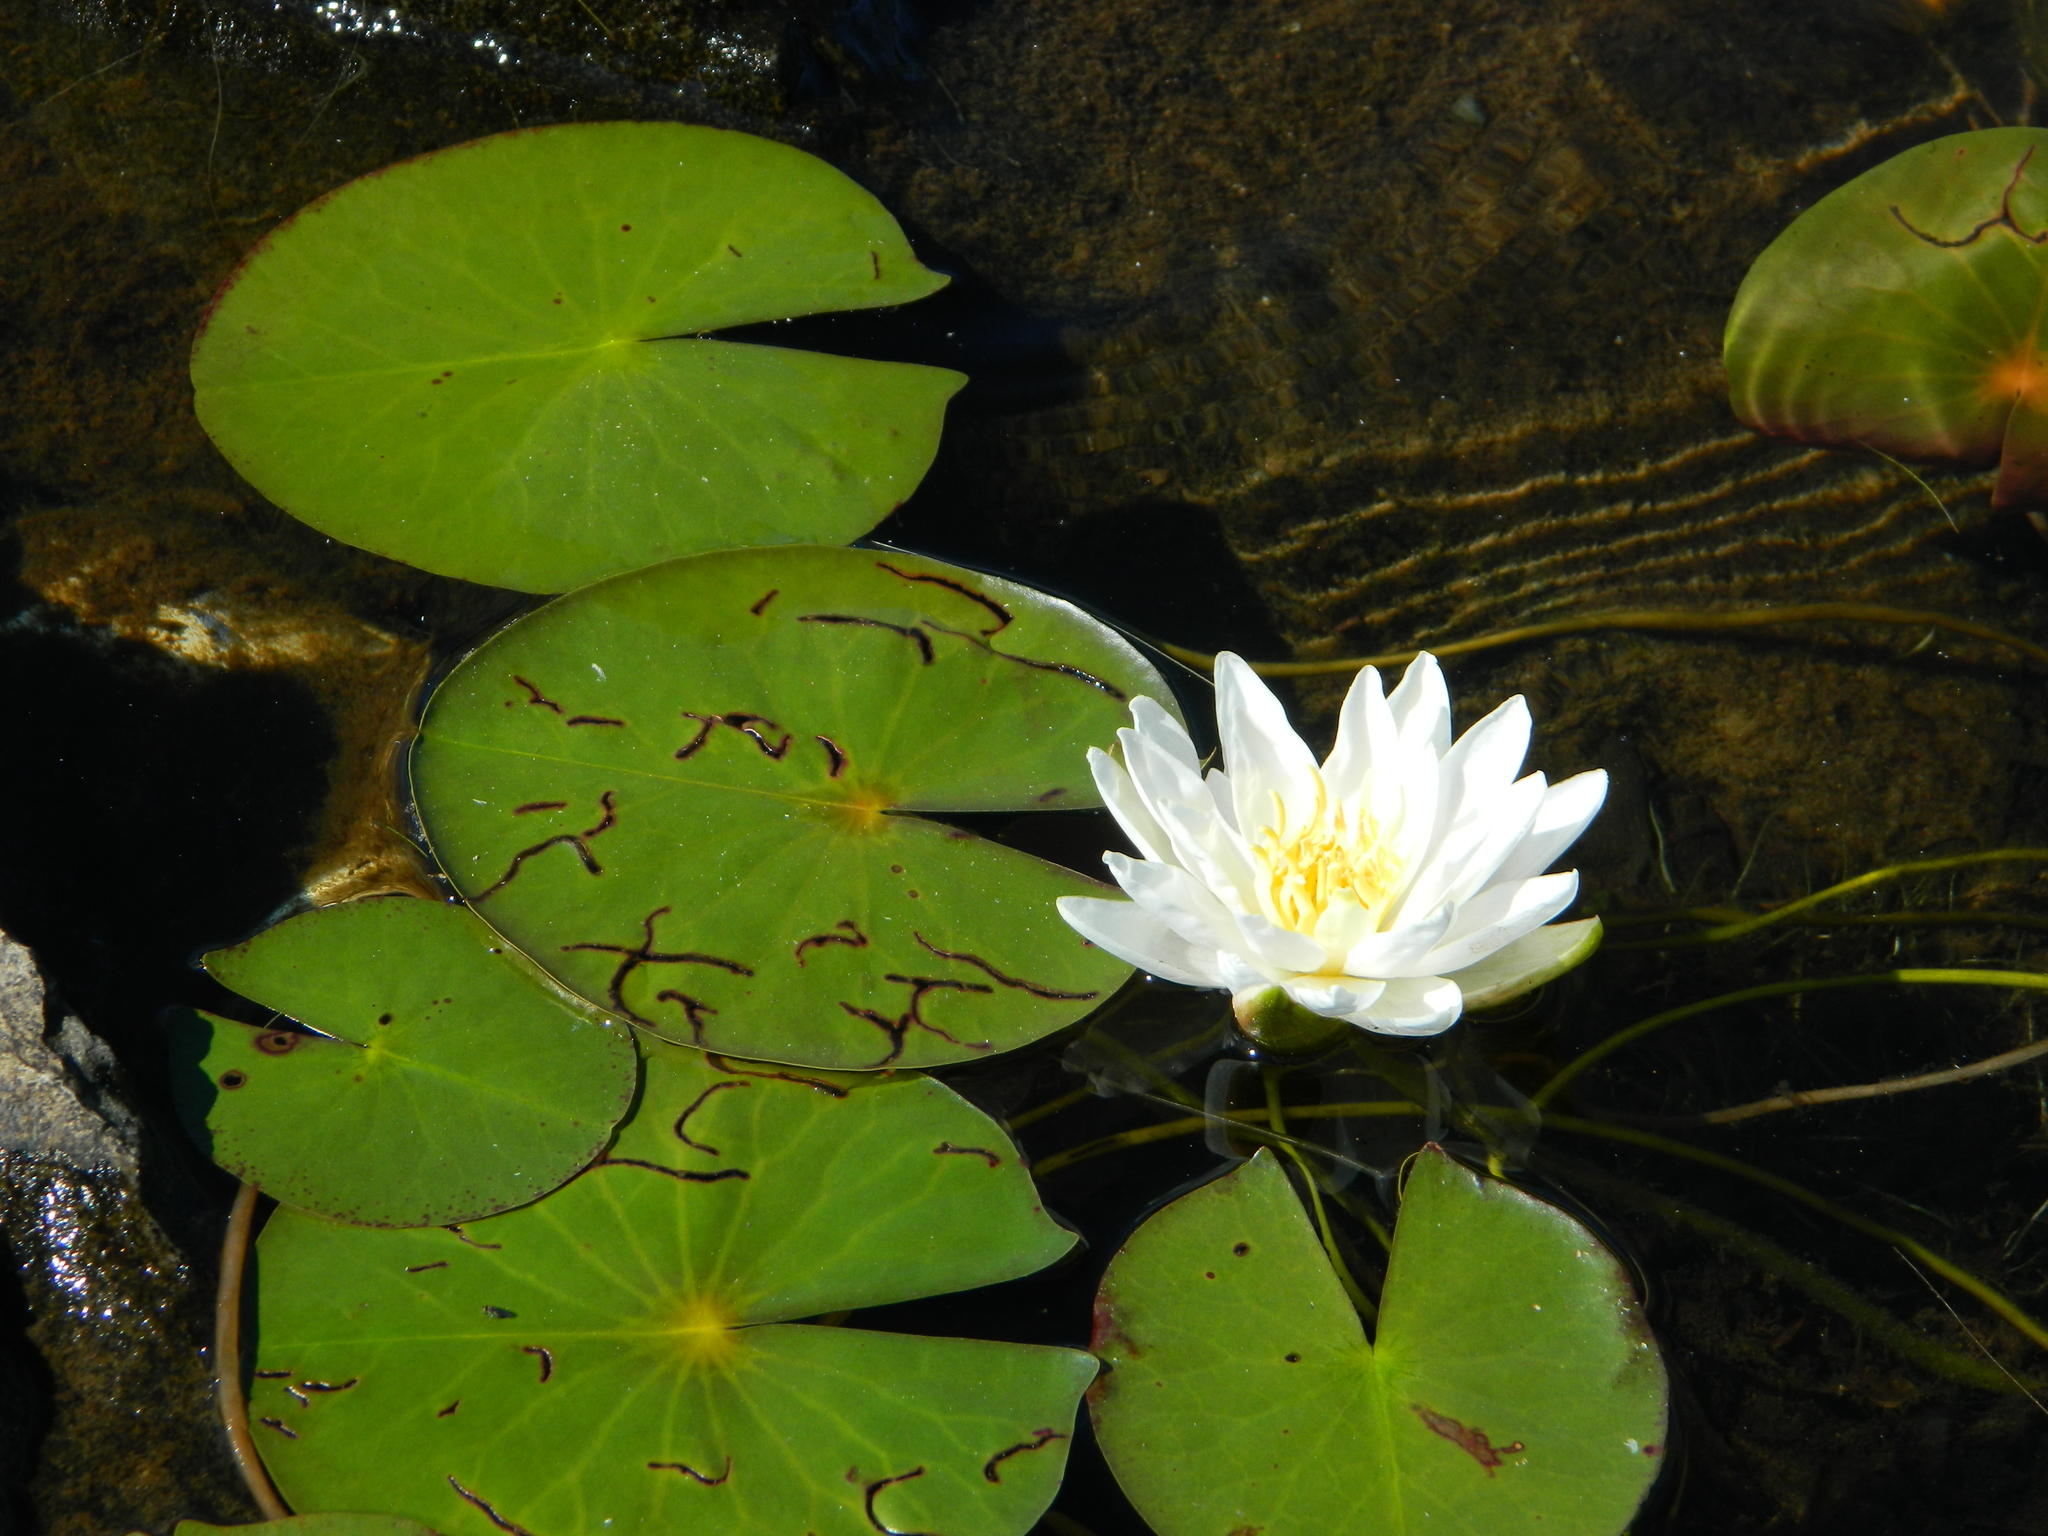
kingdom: Plantae
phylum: Tracheophyta
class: Magnoliopsida
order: Nymphaeales
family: Nymphaeaceae
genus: Nymphaea
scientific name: Nymphaea odorata
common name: Fragrant water-lily
